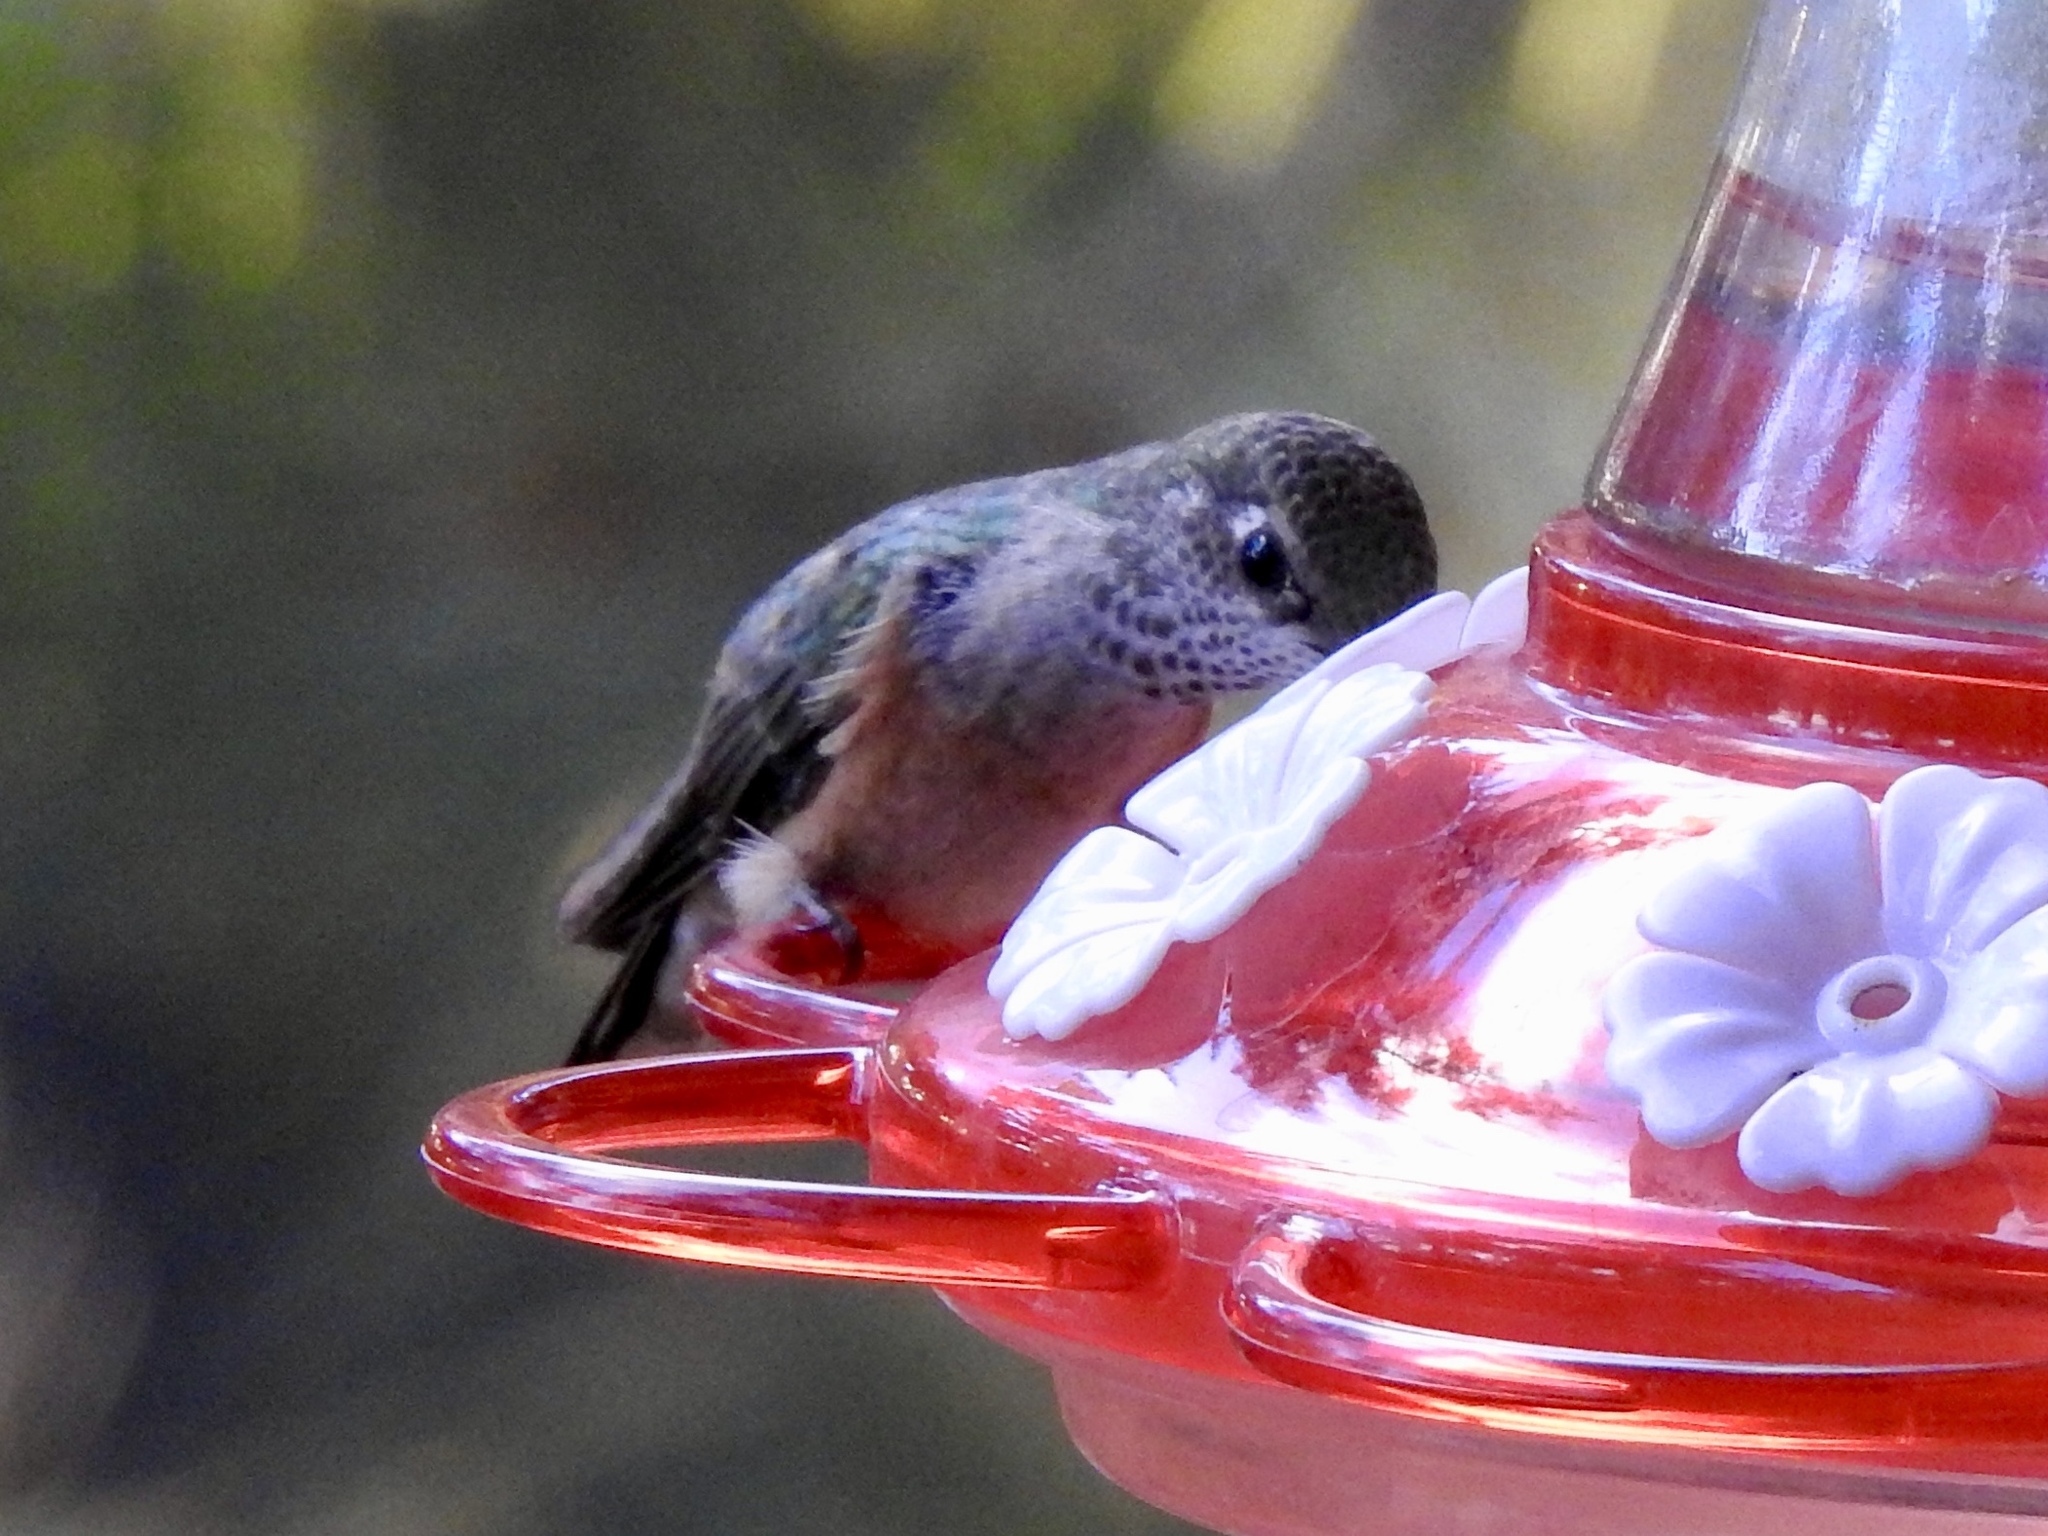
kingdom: Animalia
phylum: Chordata
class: Aves
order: Apodiformes
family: Trochilidae
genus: Selasphorus
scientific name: Selasphorus platycercus
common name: Broad-tailed hummingbird
